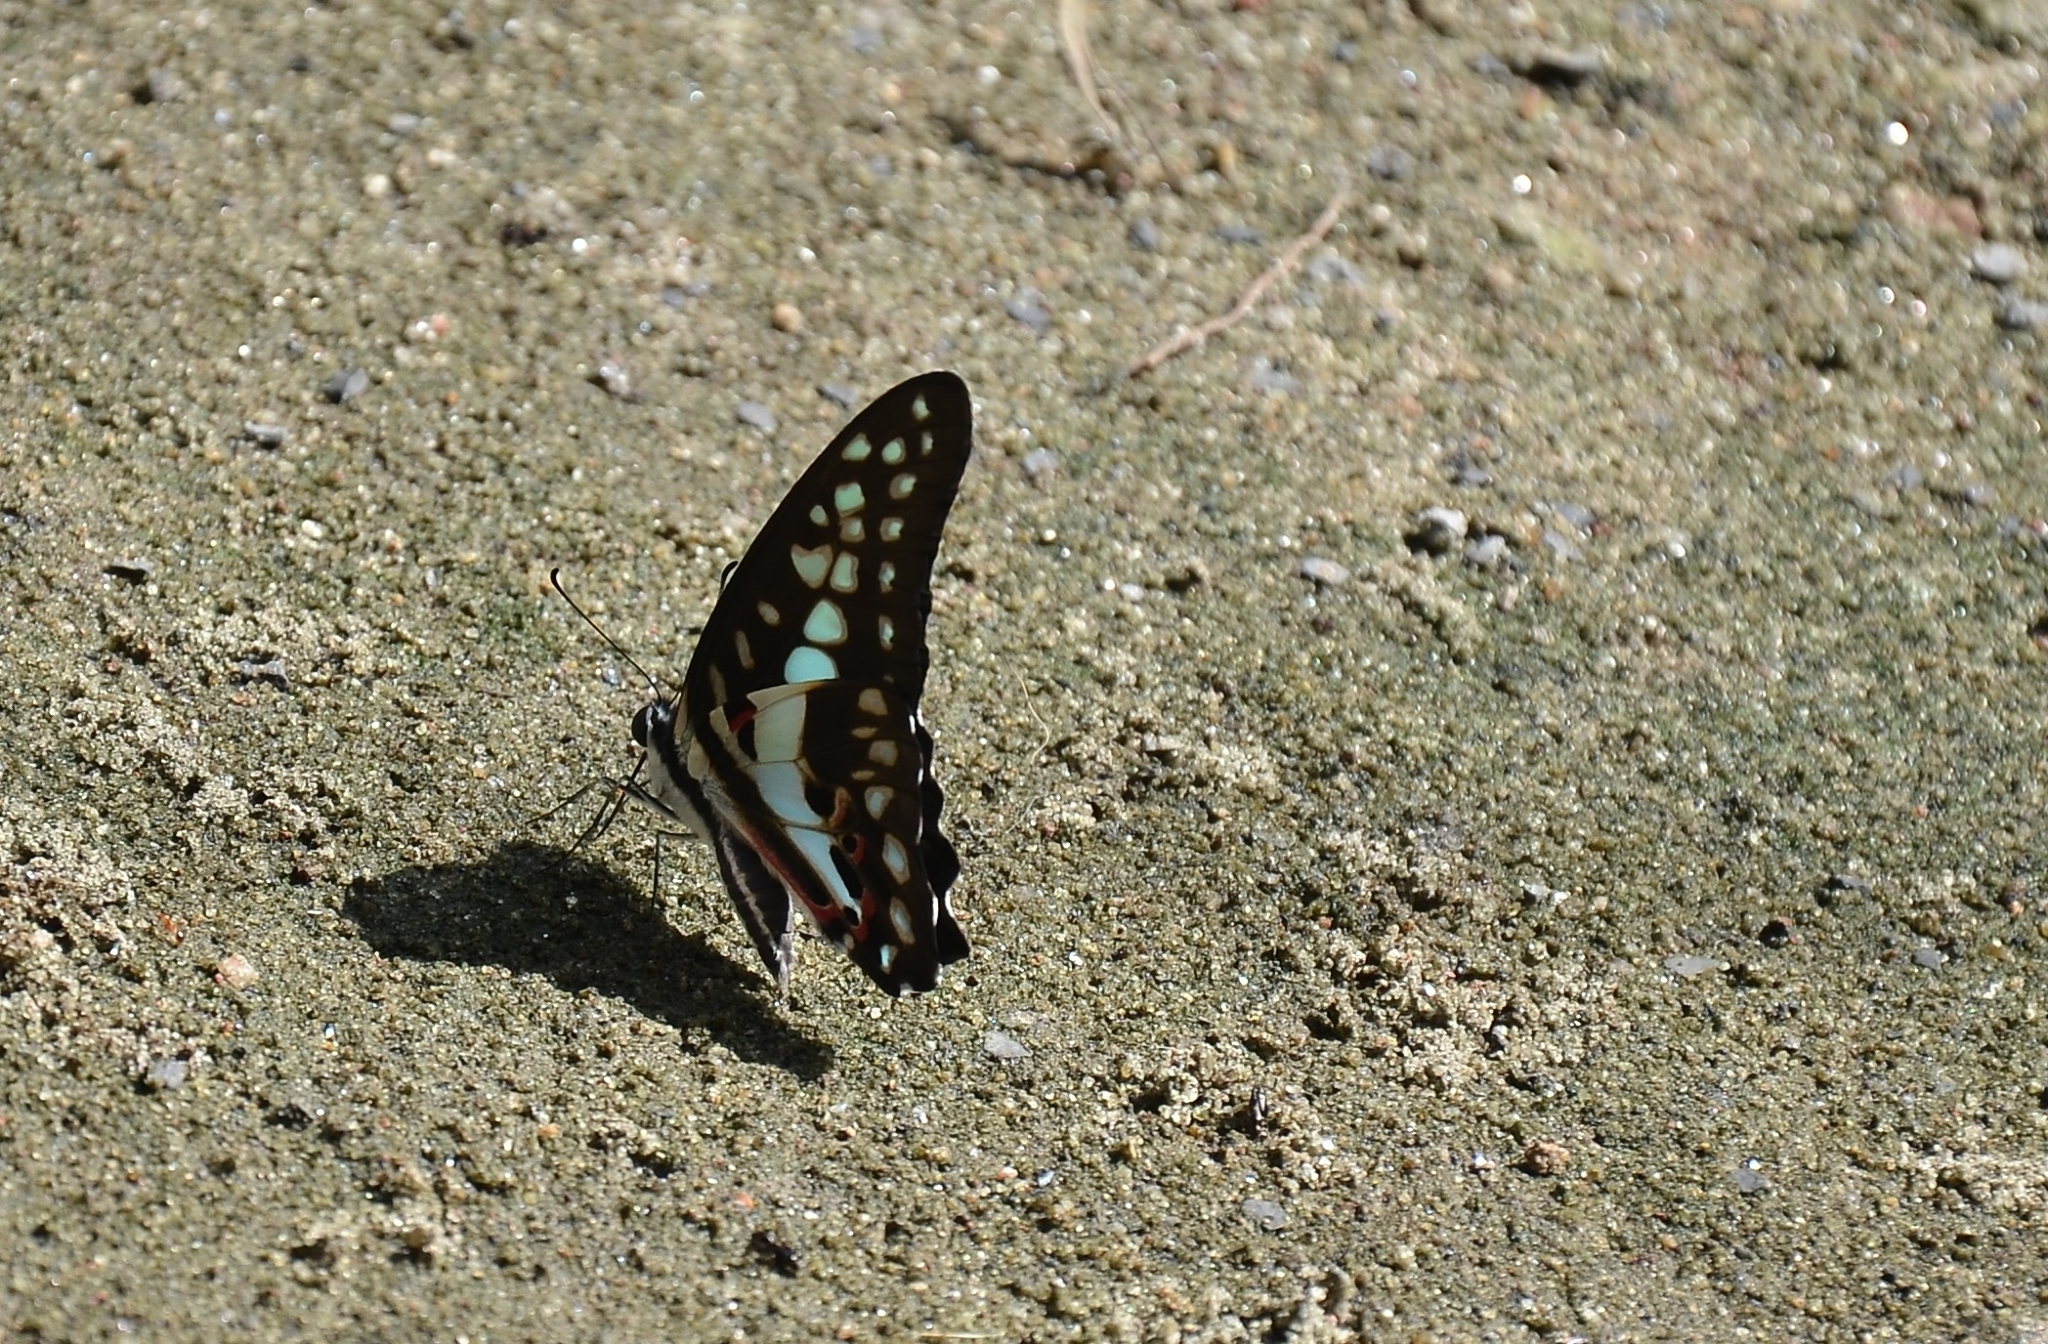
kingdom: Animalia
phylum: Arthropoda
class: Insecta
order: Lepidoptera
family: Papilionidae
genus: Graphium
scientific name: Graphium doson
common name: Common jay
